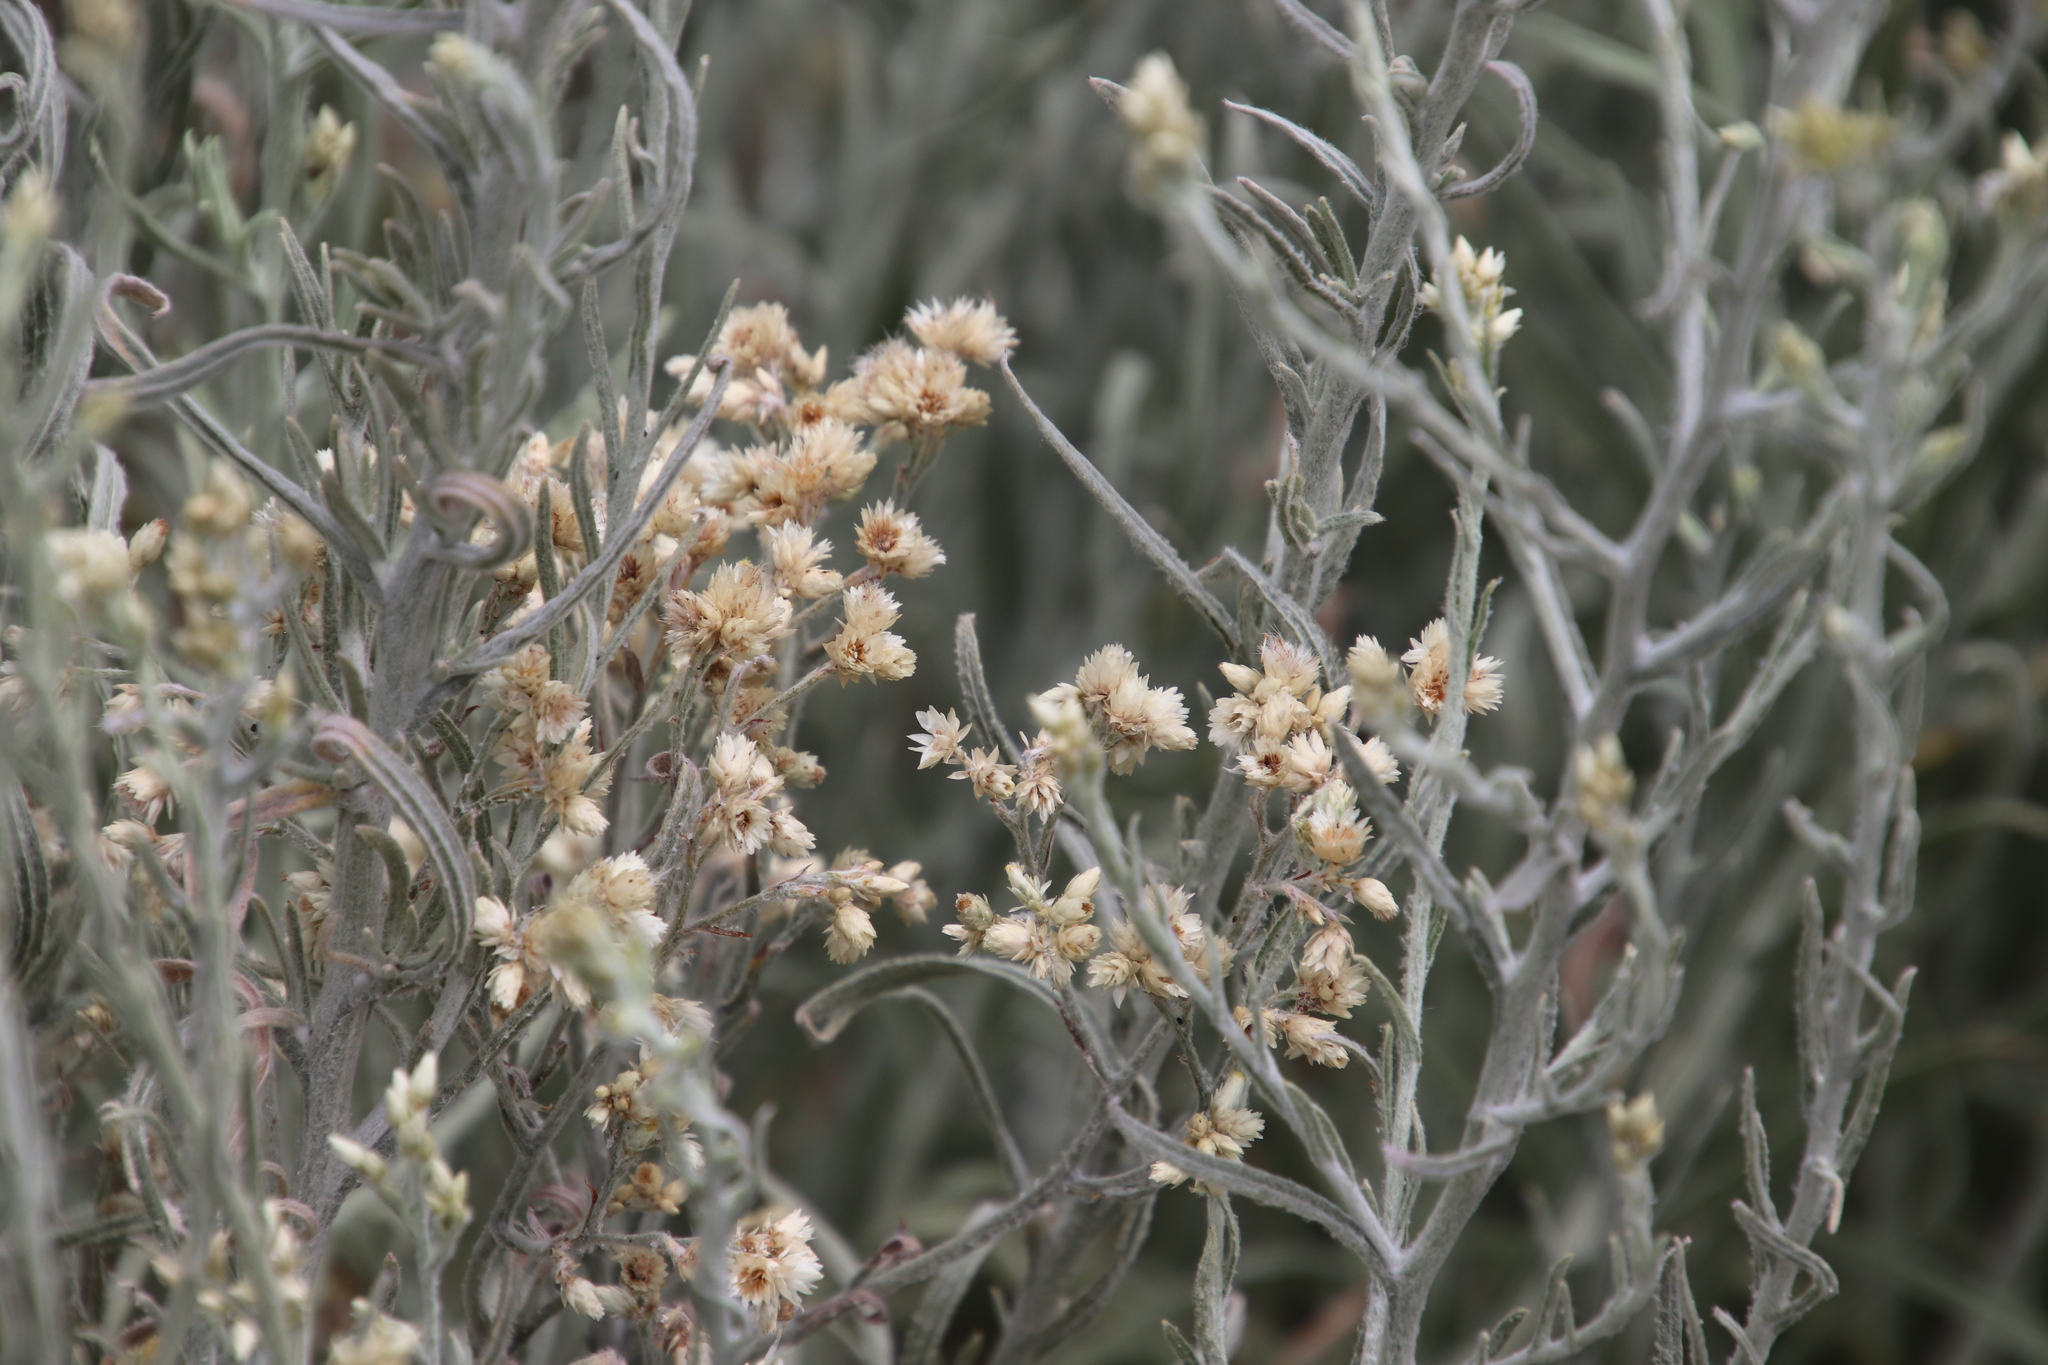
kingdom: Plantae
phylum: Tracheophyta
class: Magnoliopsida
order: Asterales
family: Asteraceae
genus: Pseudognaphalium
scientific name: Pseudognaphalium beneolens
